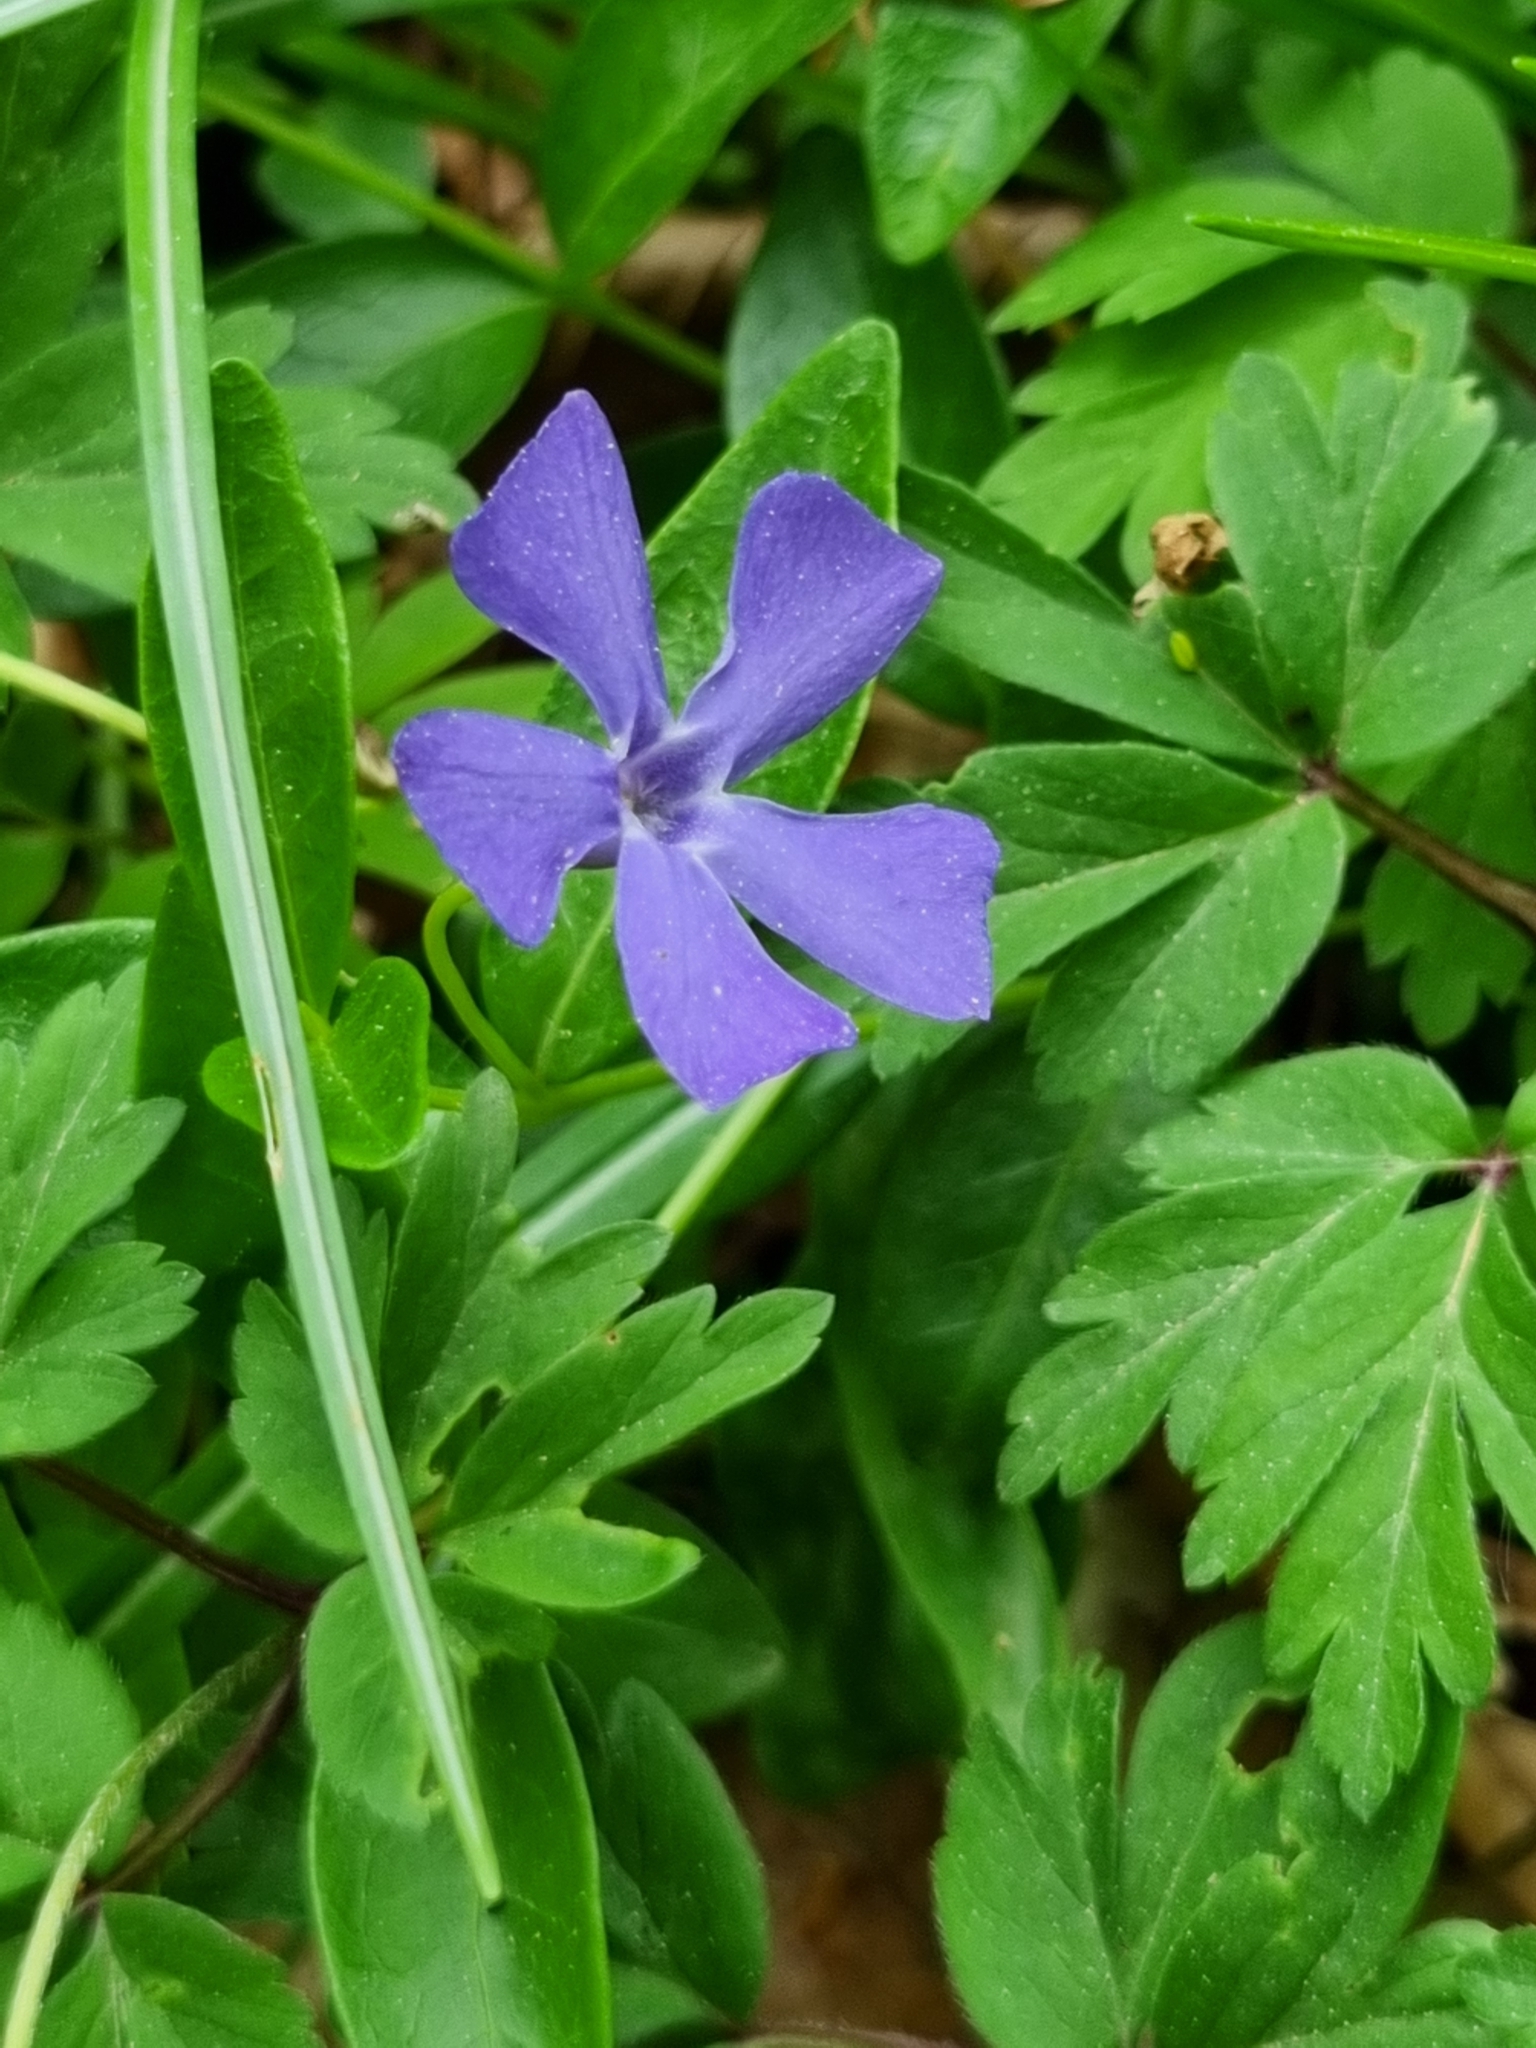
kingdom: Plantae
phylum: Tracheophyta
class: Magnoliopsida
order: Gentianales
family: Apocynaceae
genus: Vinca
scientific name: Vinca minor
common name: Lesser periwinkle
